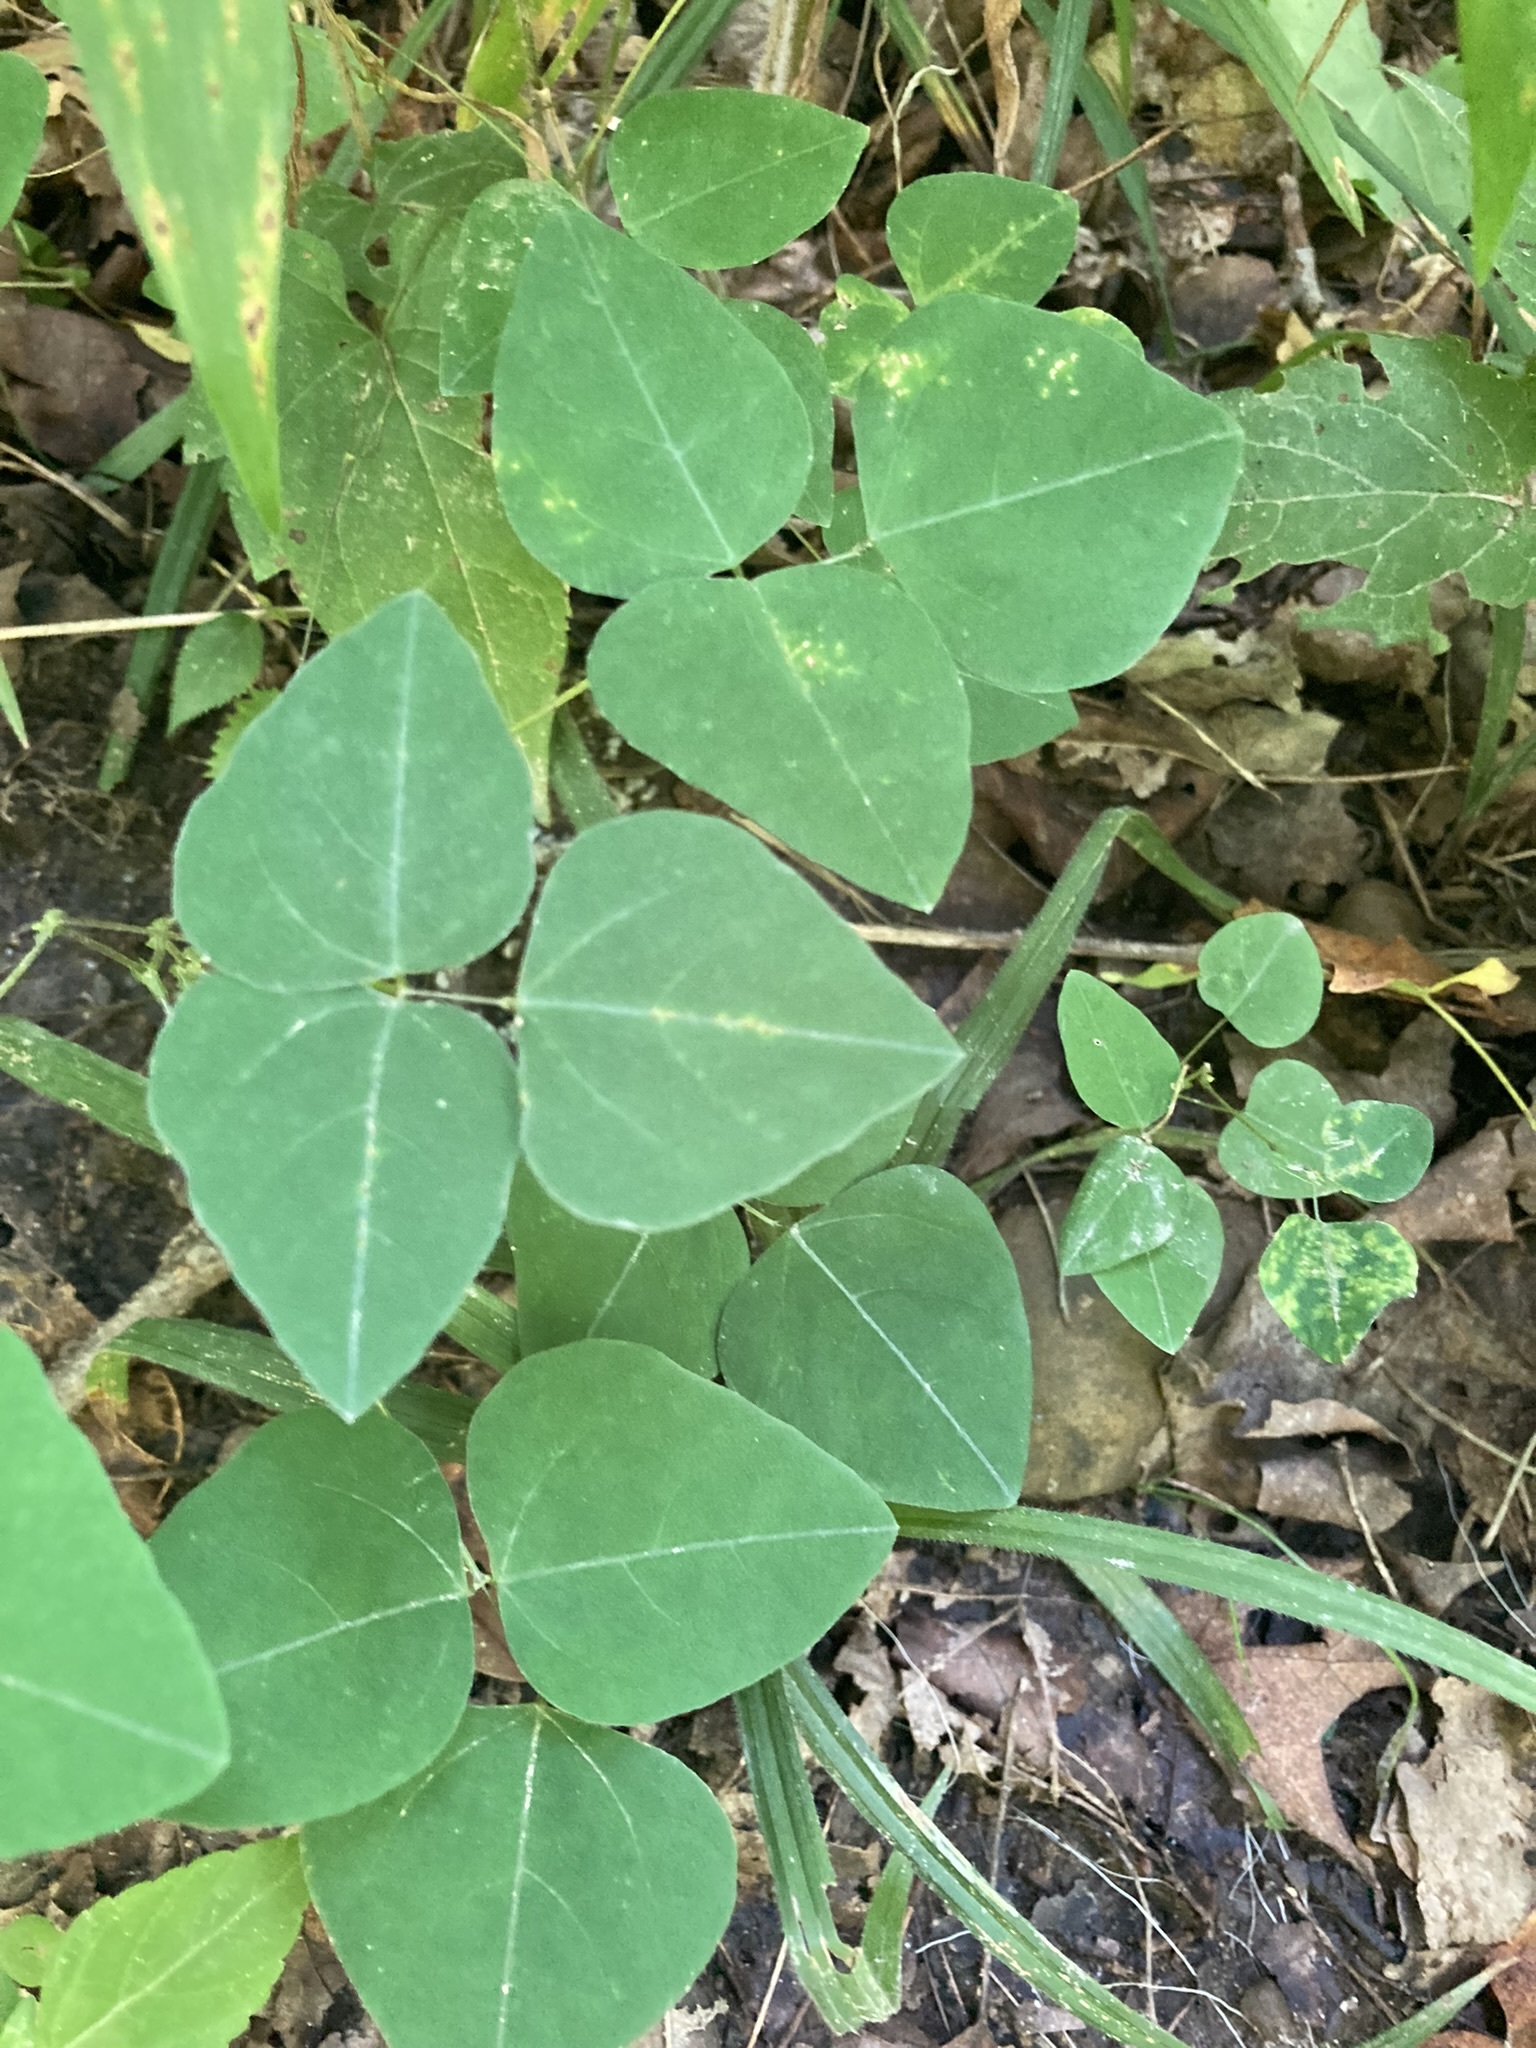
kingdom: Plantae
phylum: Tracheophyta
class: Magnoliopsida
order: Fabales
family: Fabaceae
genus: Amphicarpaea
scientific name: Amphicarpaea bracteata
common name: American hog peanut
